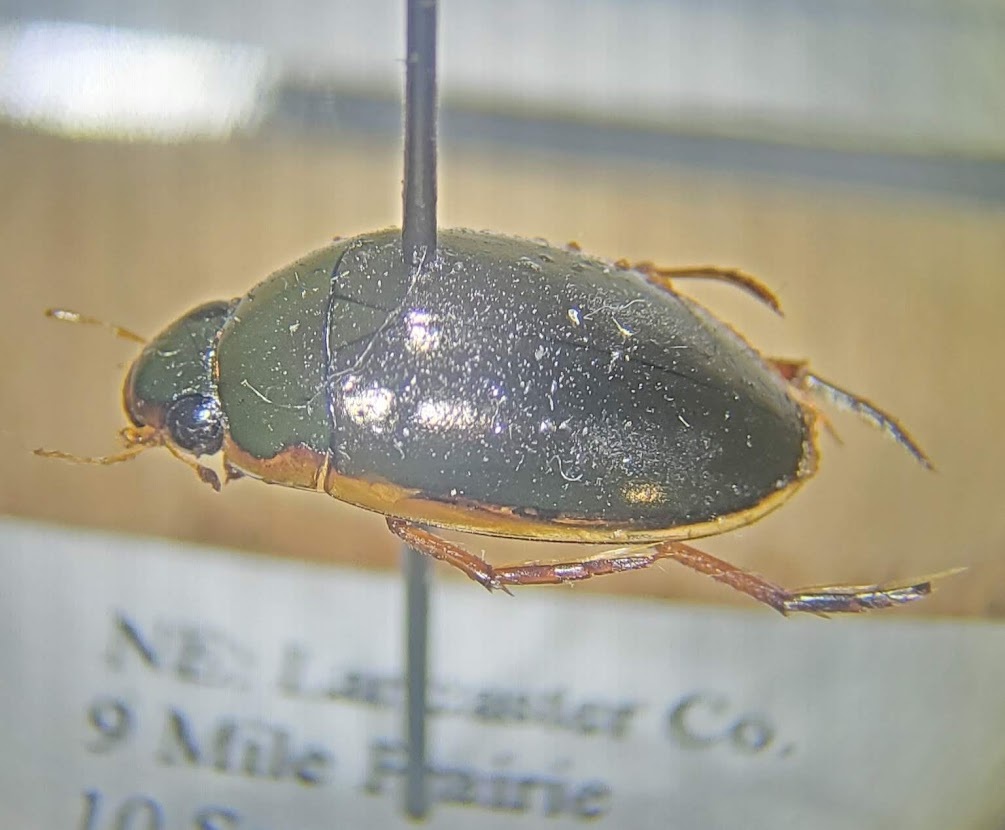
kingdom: Animalia
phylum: Arthropoda
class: Insecta
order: Coleoptera
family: Hydrophilidae
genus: Tropisternus
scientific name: Tropisternus lateralis
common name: Lateral-banded water scavenger beetle
